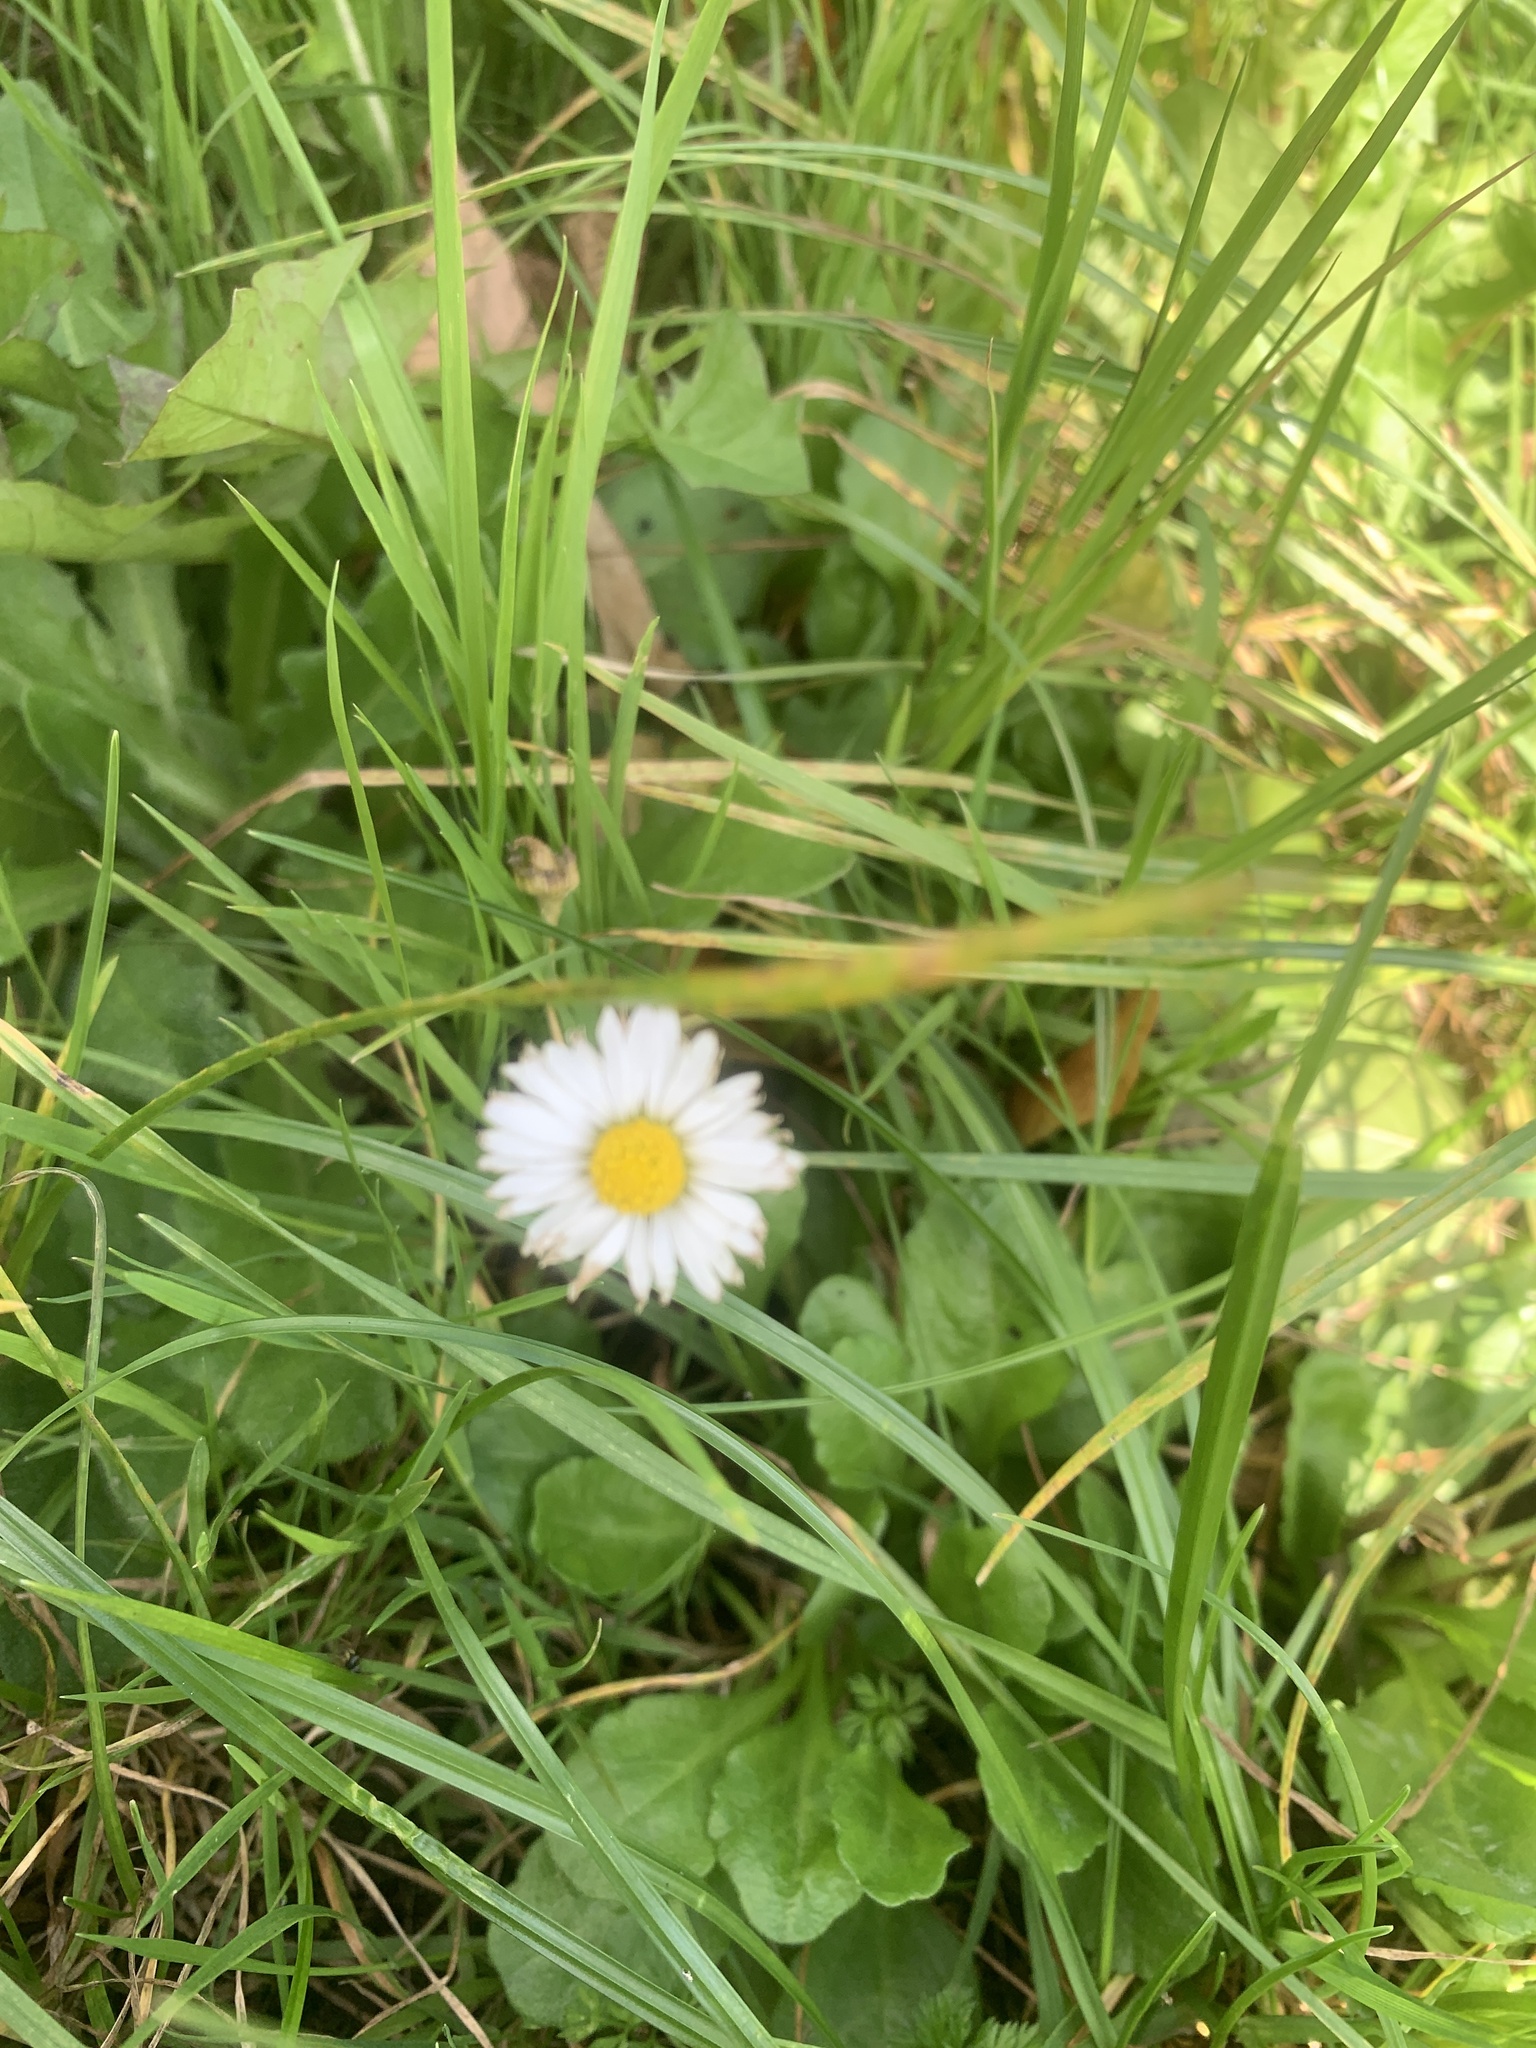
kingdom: Plantae
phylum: Tracheophyta
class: Magnoliopsida
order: Asterales
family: Asteraceae
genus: Bellis
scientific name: Bellis perennis
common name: Lawndaisy
